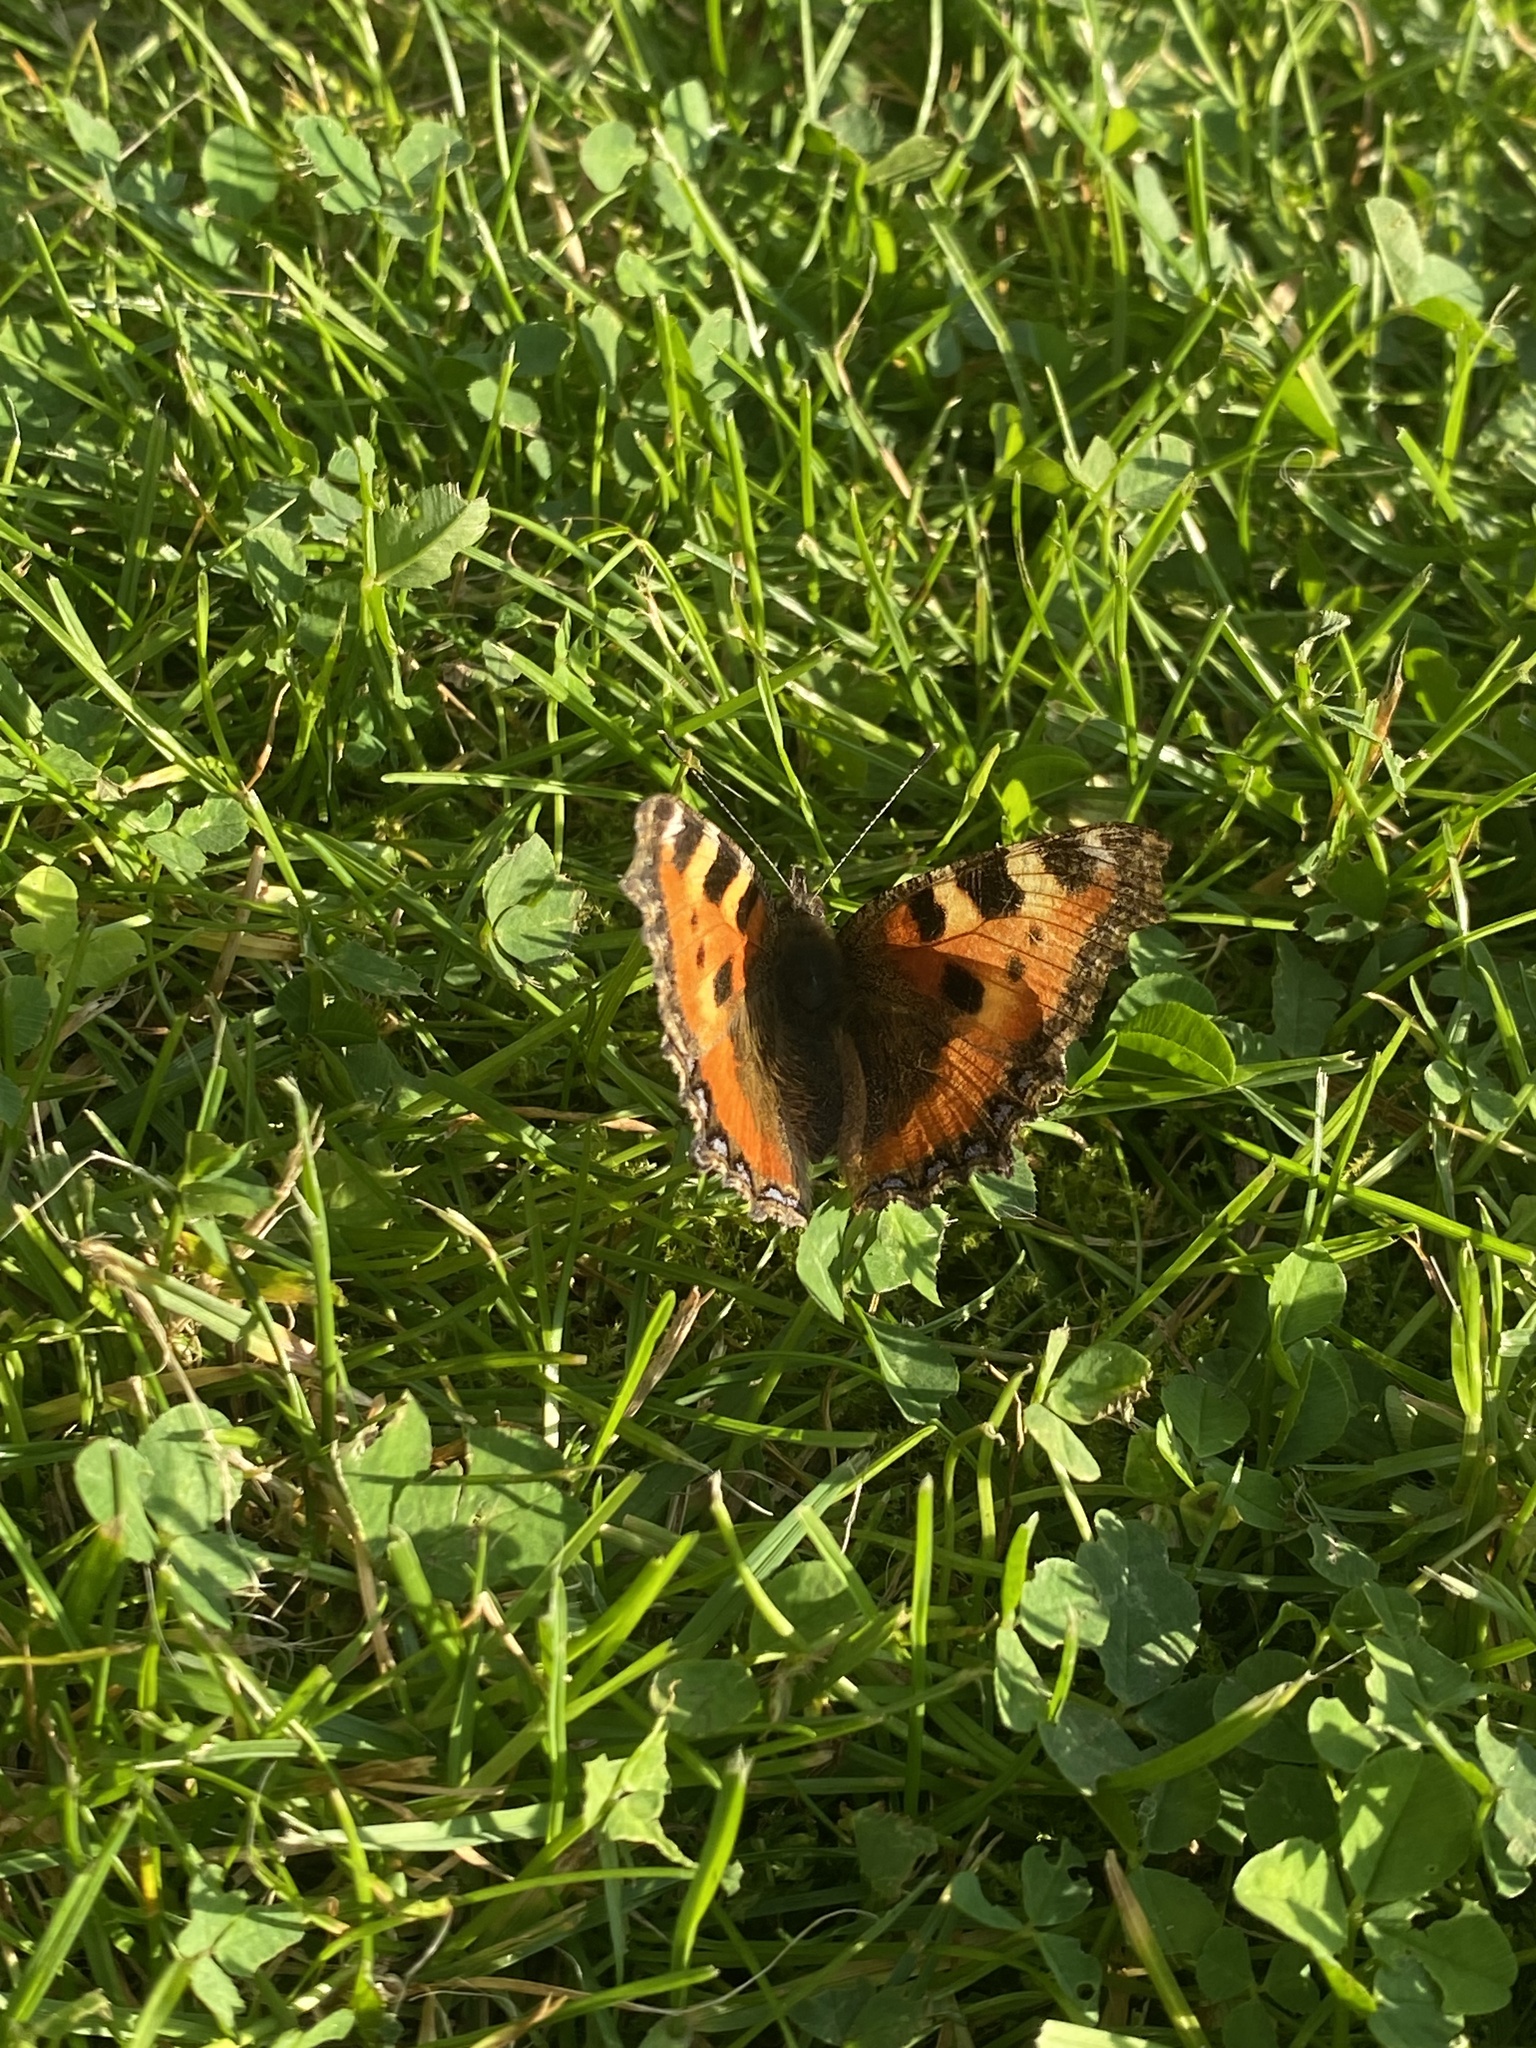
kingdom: Animalia
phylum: Arthropoda
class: Insecta
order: Lepidoptera
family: Nymphalidae
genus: Aglais
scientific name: Aglais urticae
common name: Small tortoiseshell
